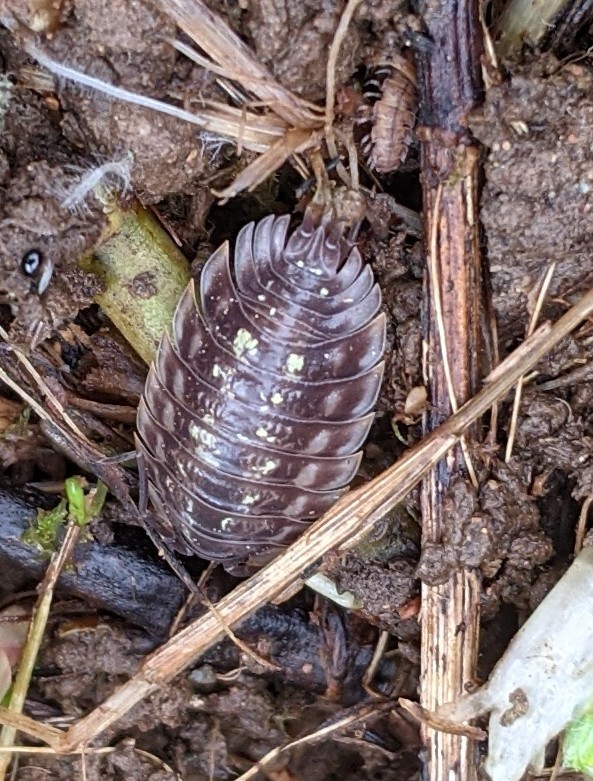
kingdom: Animalia
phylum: Arthropoda
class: Malacostraca
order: Isopoda
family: Oniscidae
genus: Oniscus
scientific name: Oniscus asellus
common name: Common shiny woodlouse
